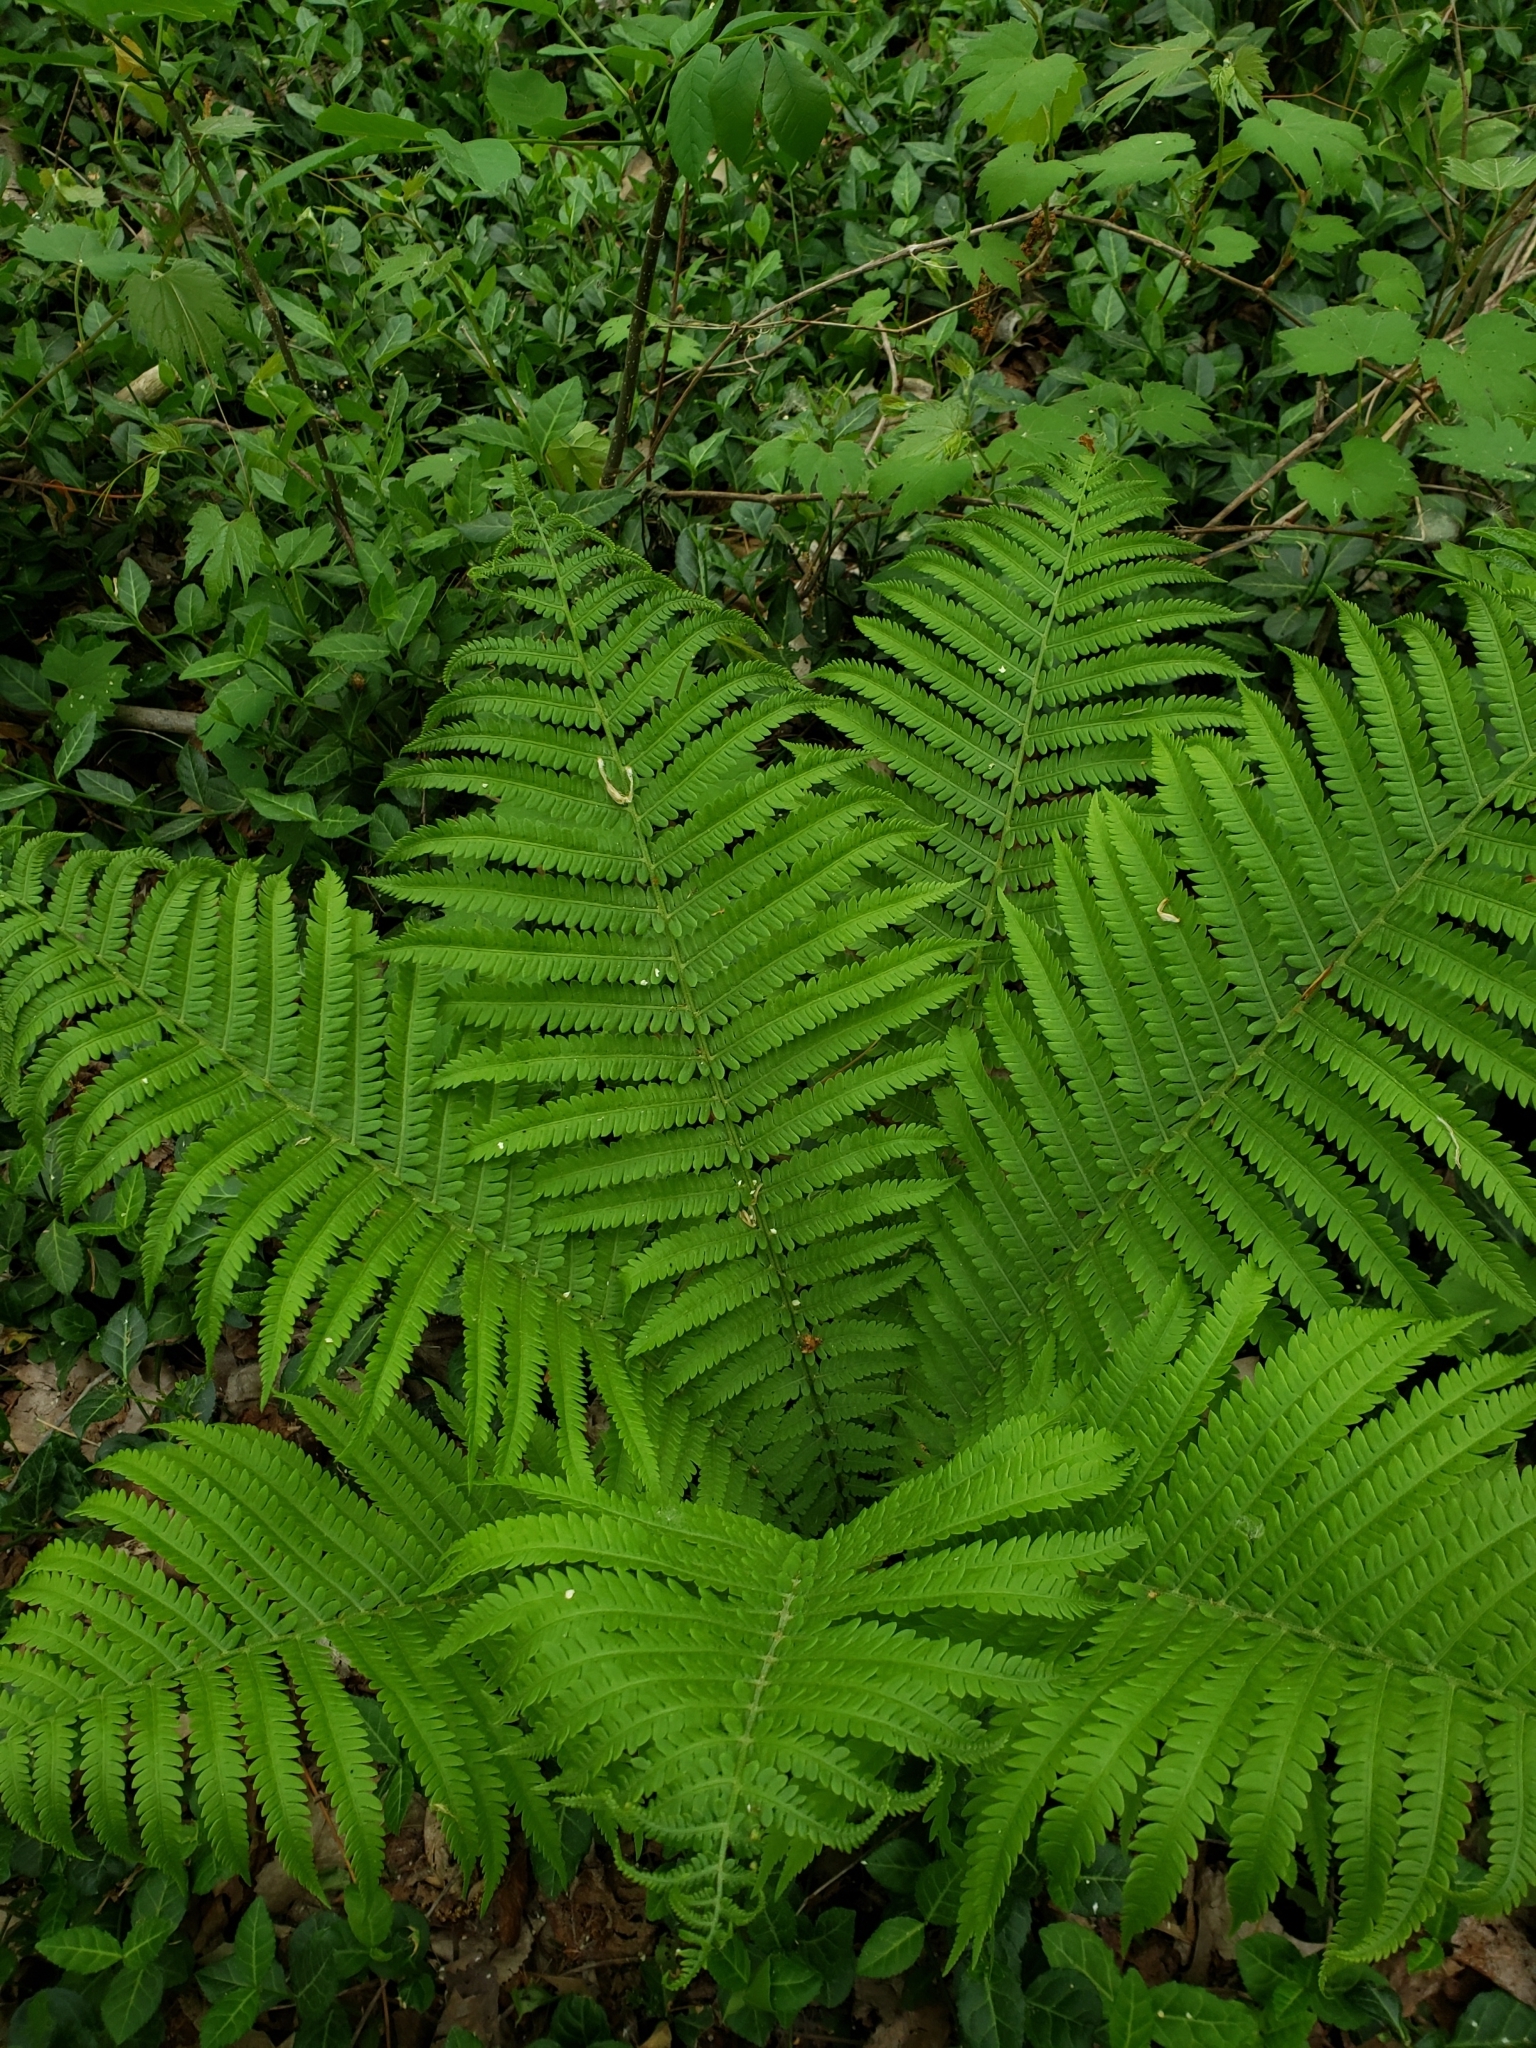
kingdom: Plantae
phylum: Tracheophyta
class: Polypodiopsida
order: Polypodiales
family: Onocleaceae
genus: Matteuccia
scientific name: Matteuccia struthiopteris
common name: Ostrich fern
